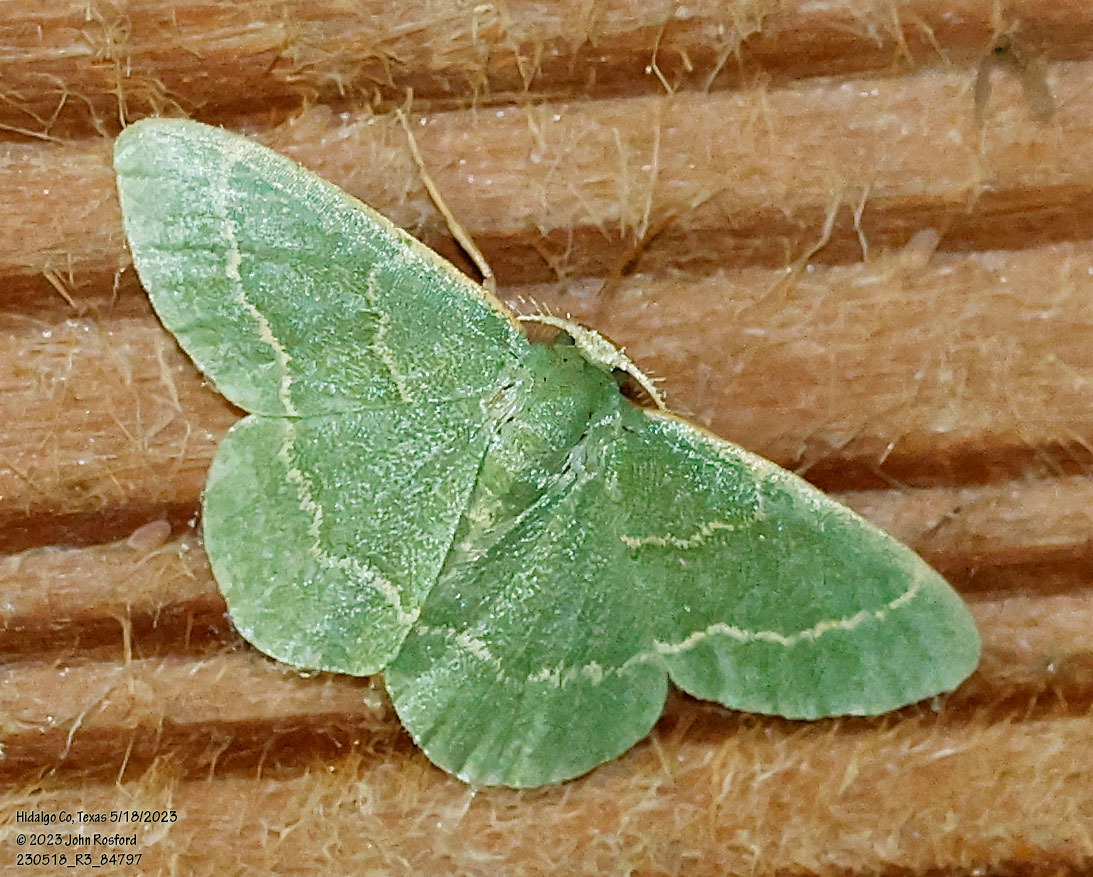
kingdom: Animalia
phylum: Arthropoda
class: Insecta
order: Lepidoptera
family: Geometridae
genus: Chlorochlamys
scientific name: Chlorochlamys phyllinaria
